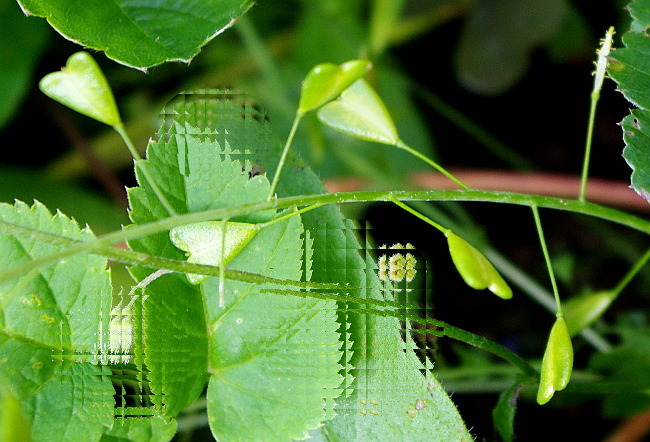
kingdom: Plantae
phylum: Tracheophyta
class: Magnoliopsida
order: Brassicales
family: Brassicaceae
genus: Capsella
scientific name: Capsella bursa-pastoris
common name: Shepherd's purse
